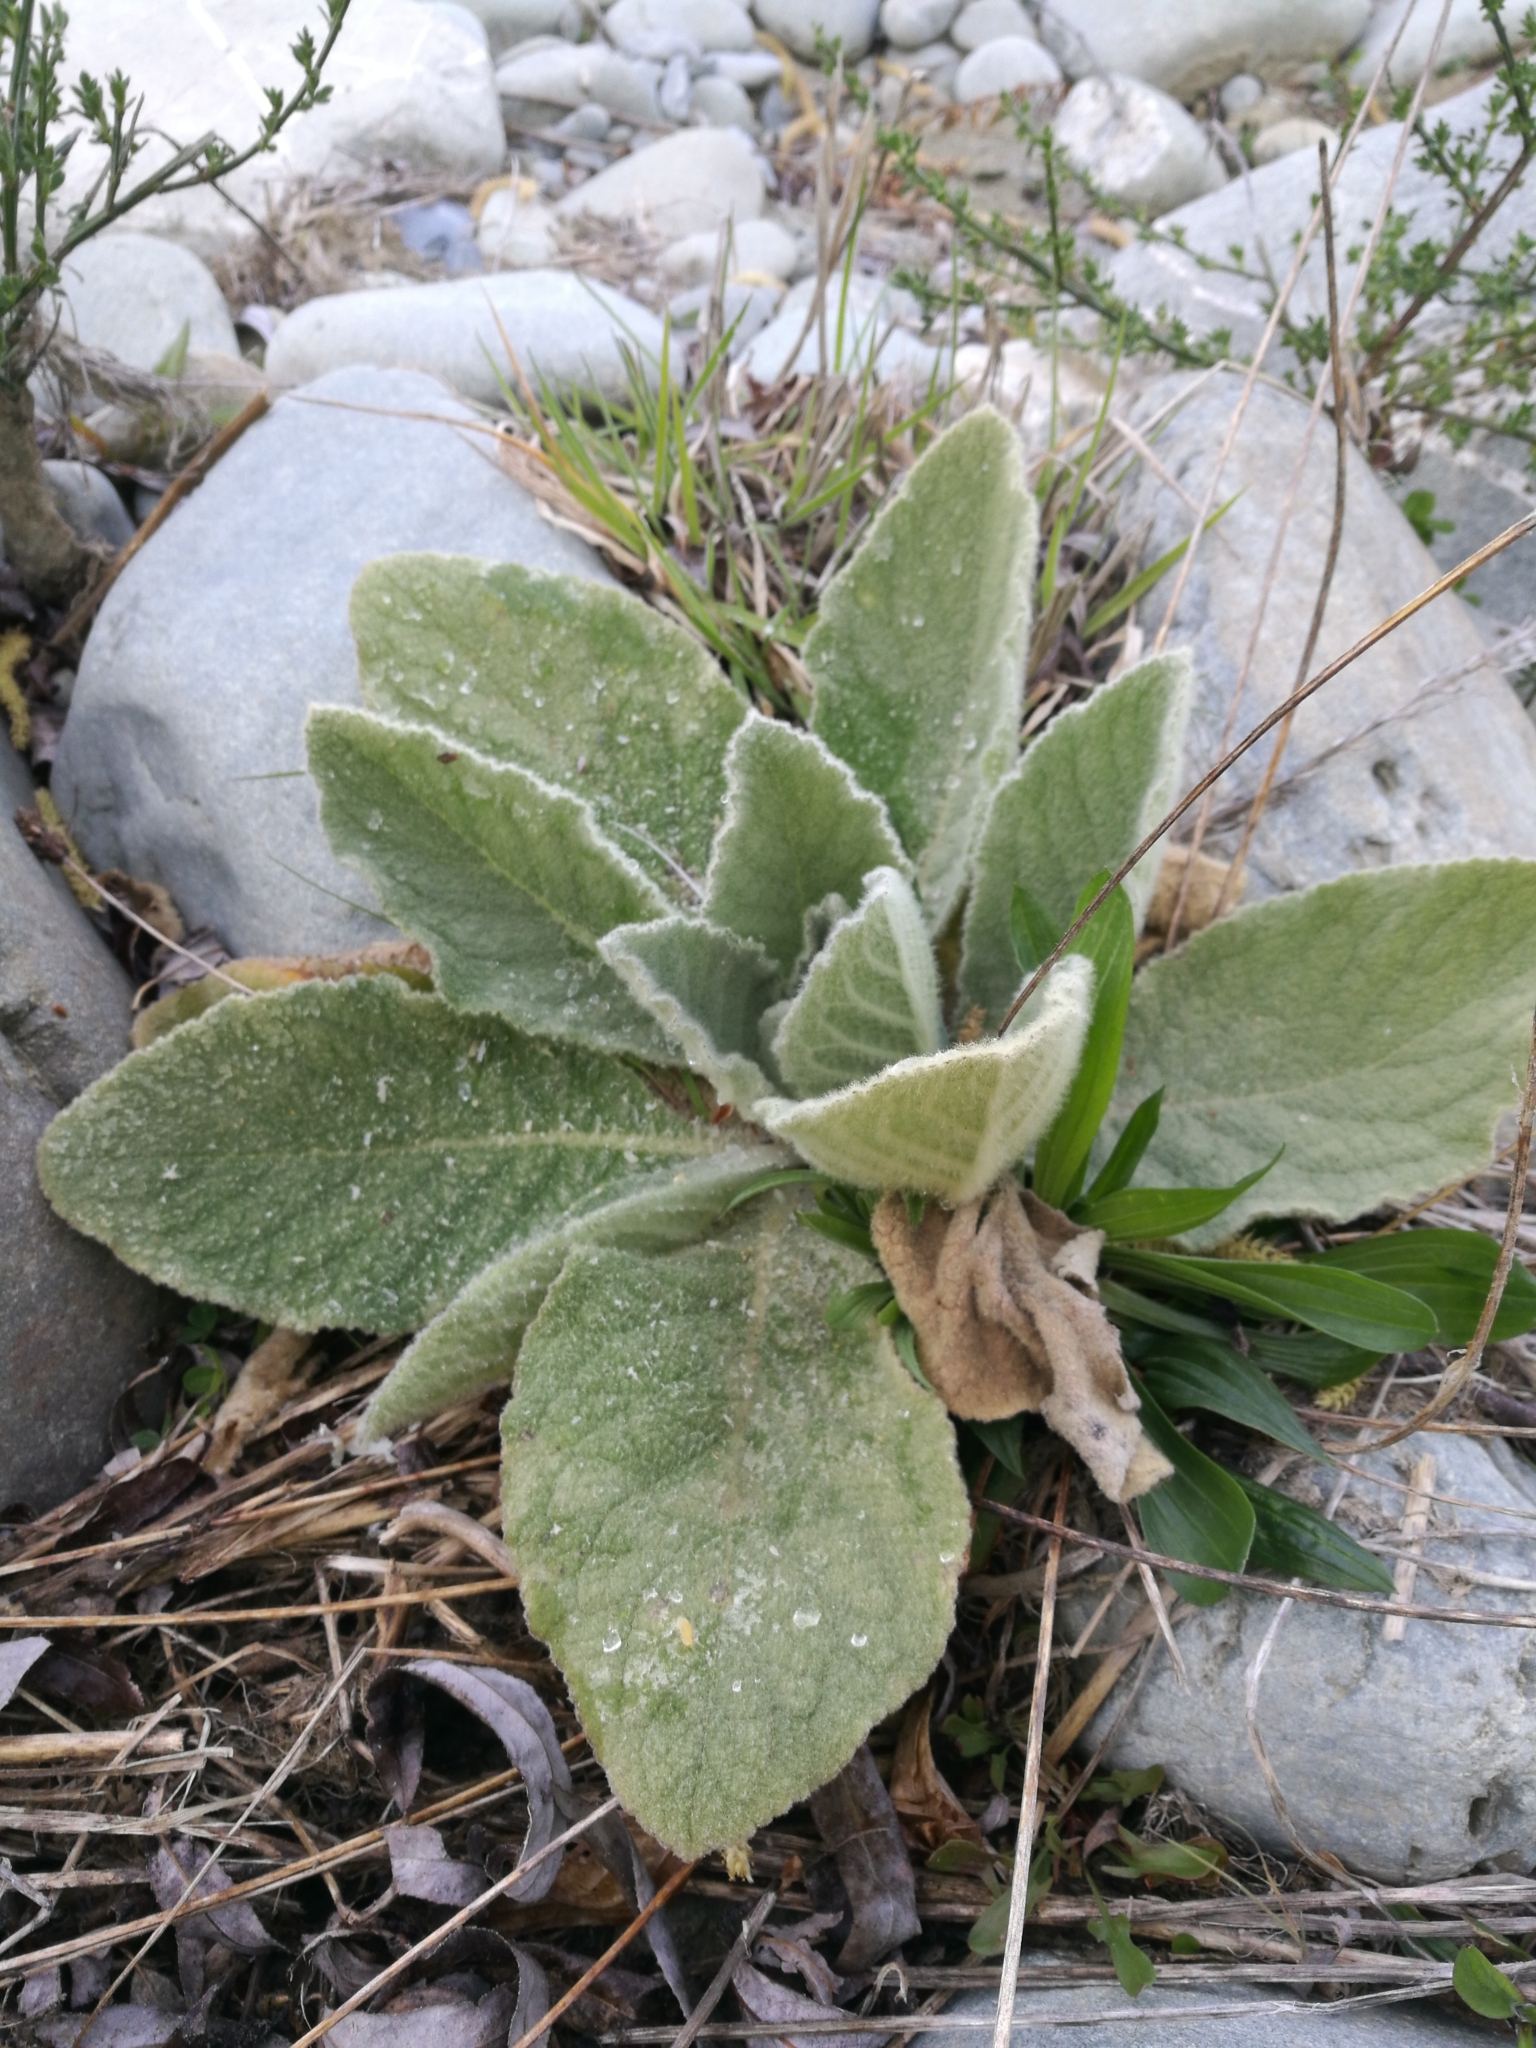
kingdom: Plantae
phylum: Tracheophyta
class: Magnoliopsida
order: Lamiales
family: Scrophulariaceae
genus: Verbascum
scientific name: Verbascum thapsus
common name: Common mullein
